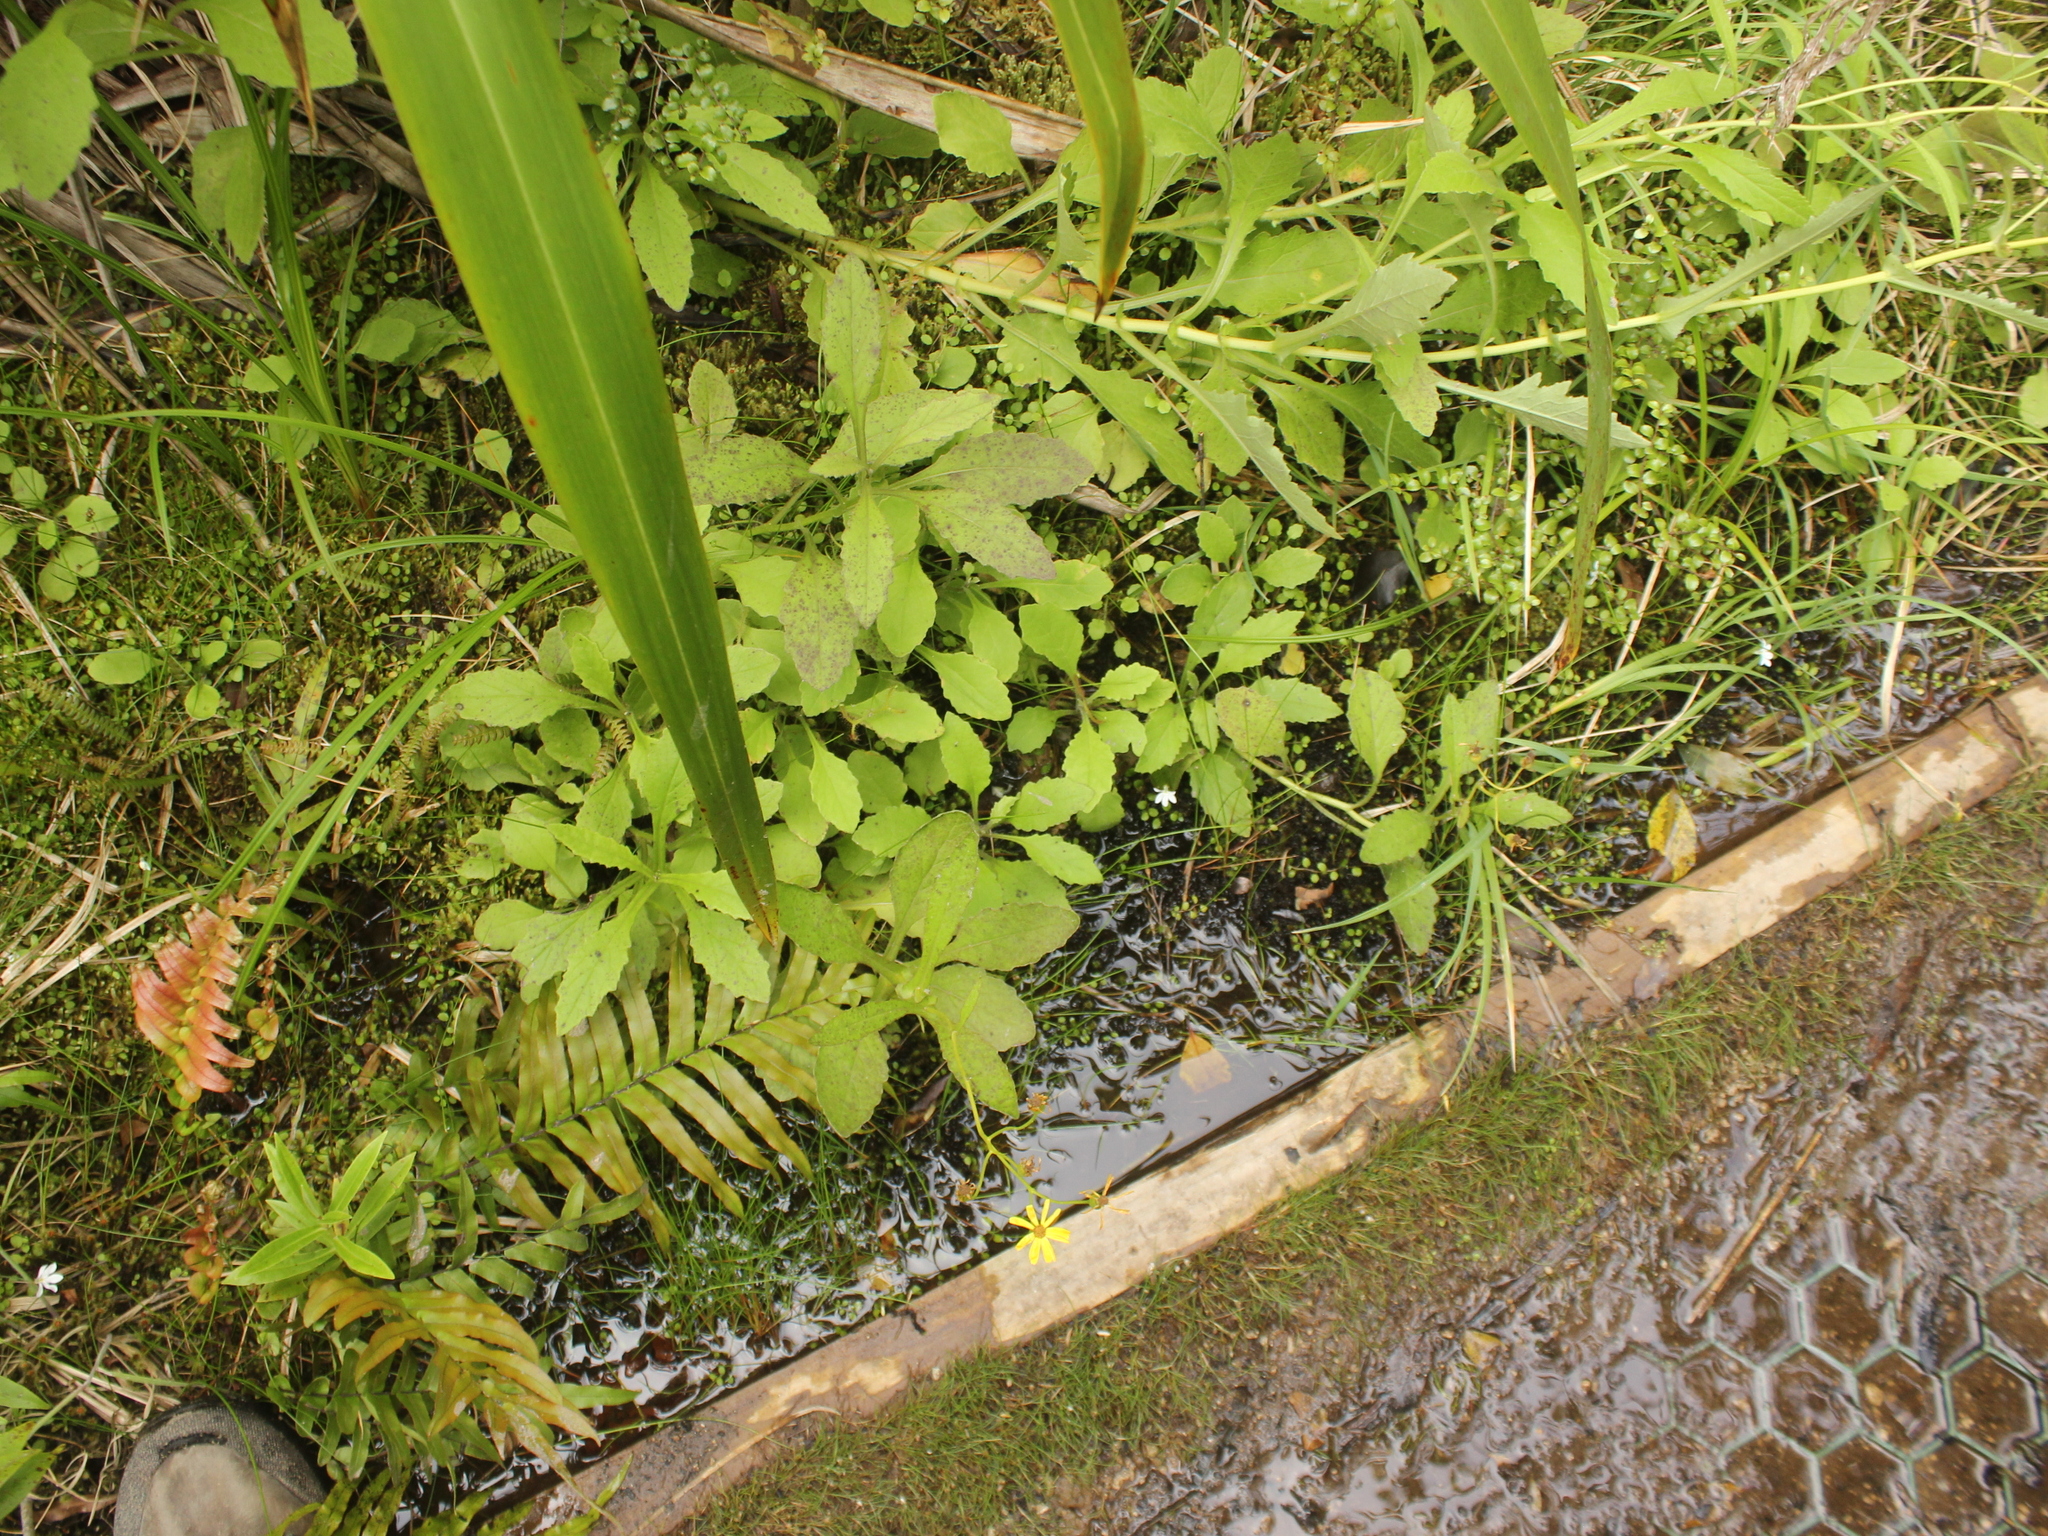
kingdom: Plantae
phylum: Tracheophyta
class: Magnoliopsida
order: Asterales
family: Asteraceae
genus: Senecio
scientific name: Senecio rufiglandulosus
